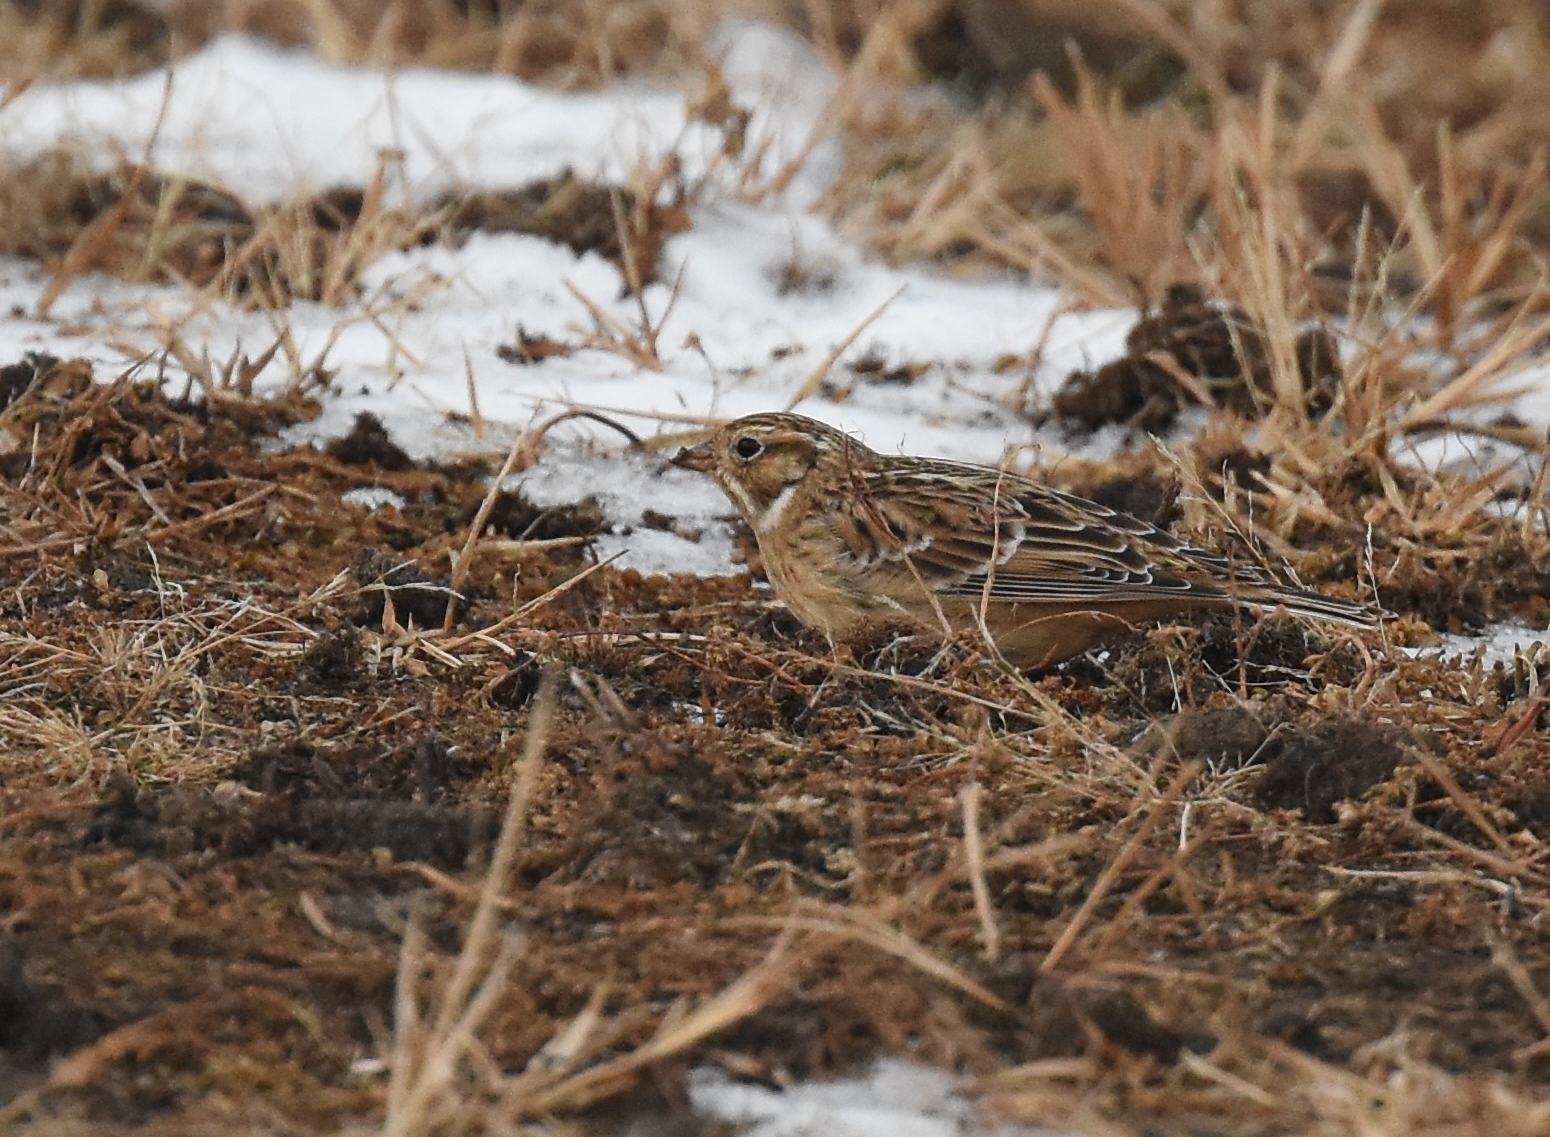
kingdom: Animalia
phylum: Chordata
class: Aves
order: Passeriformes
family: Calcariidae
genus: Calcarius
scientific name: Calcarius pictus
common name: Smith's longspur
